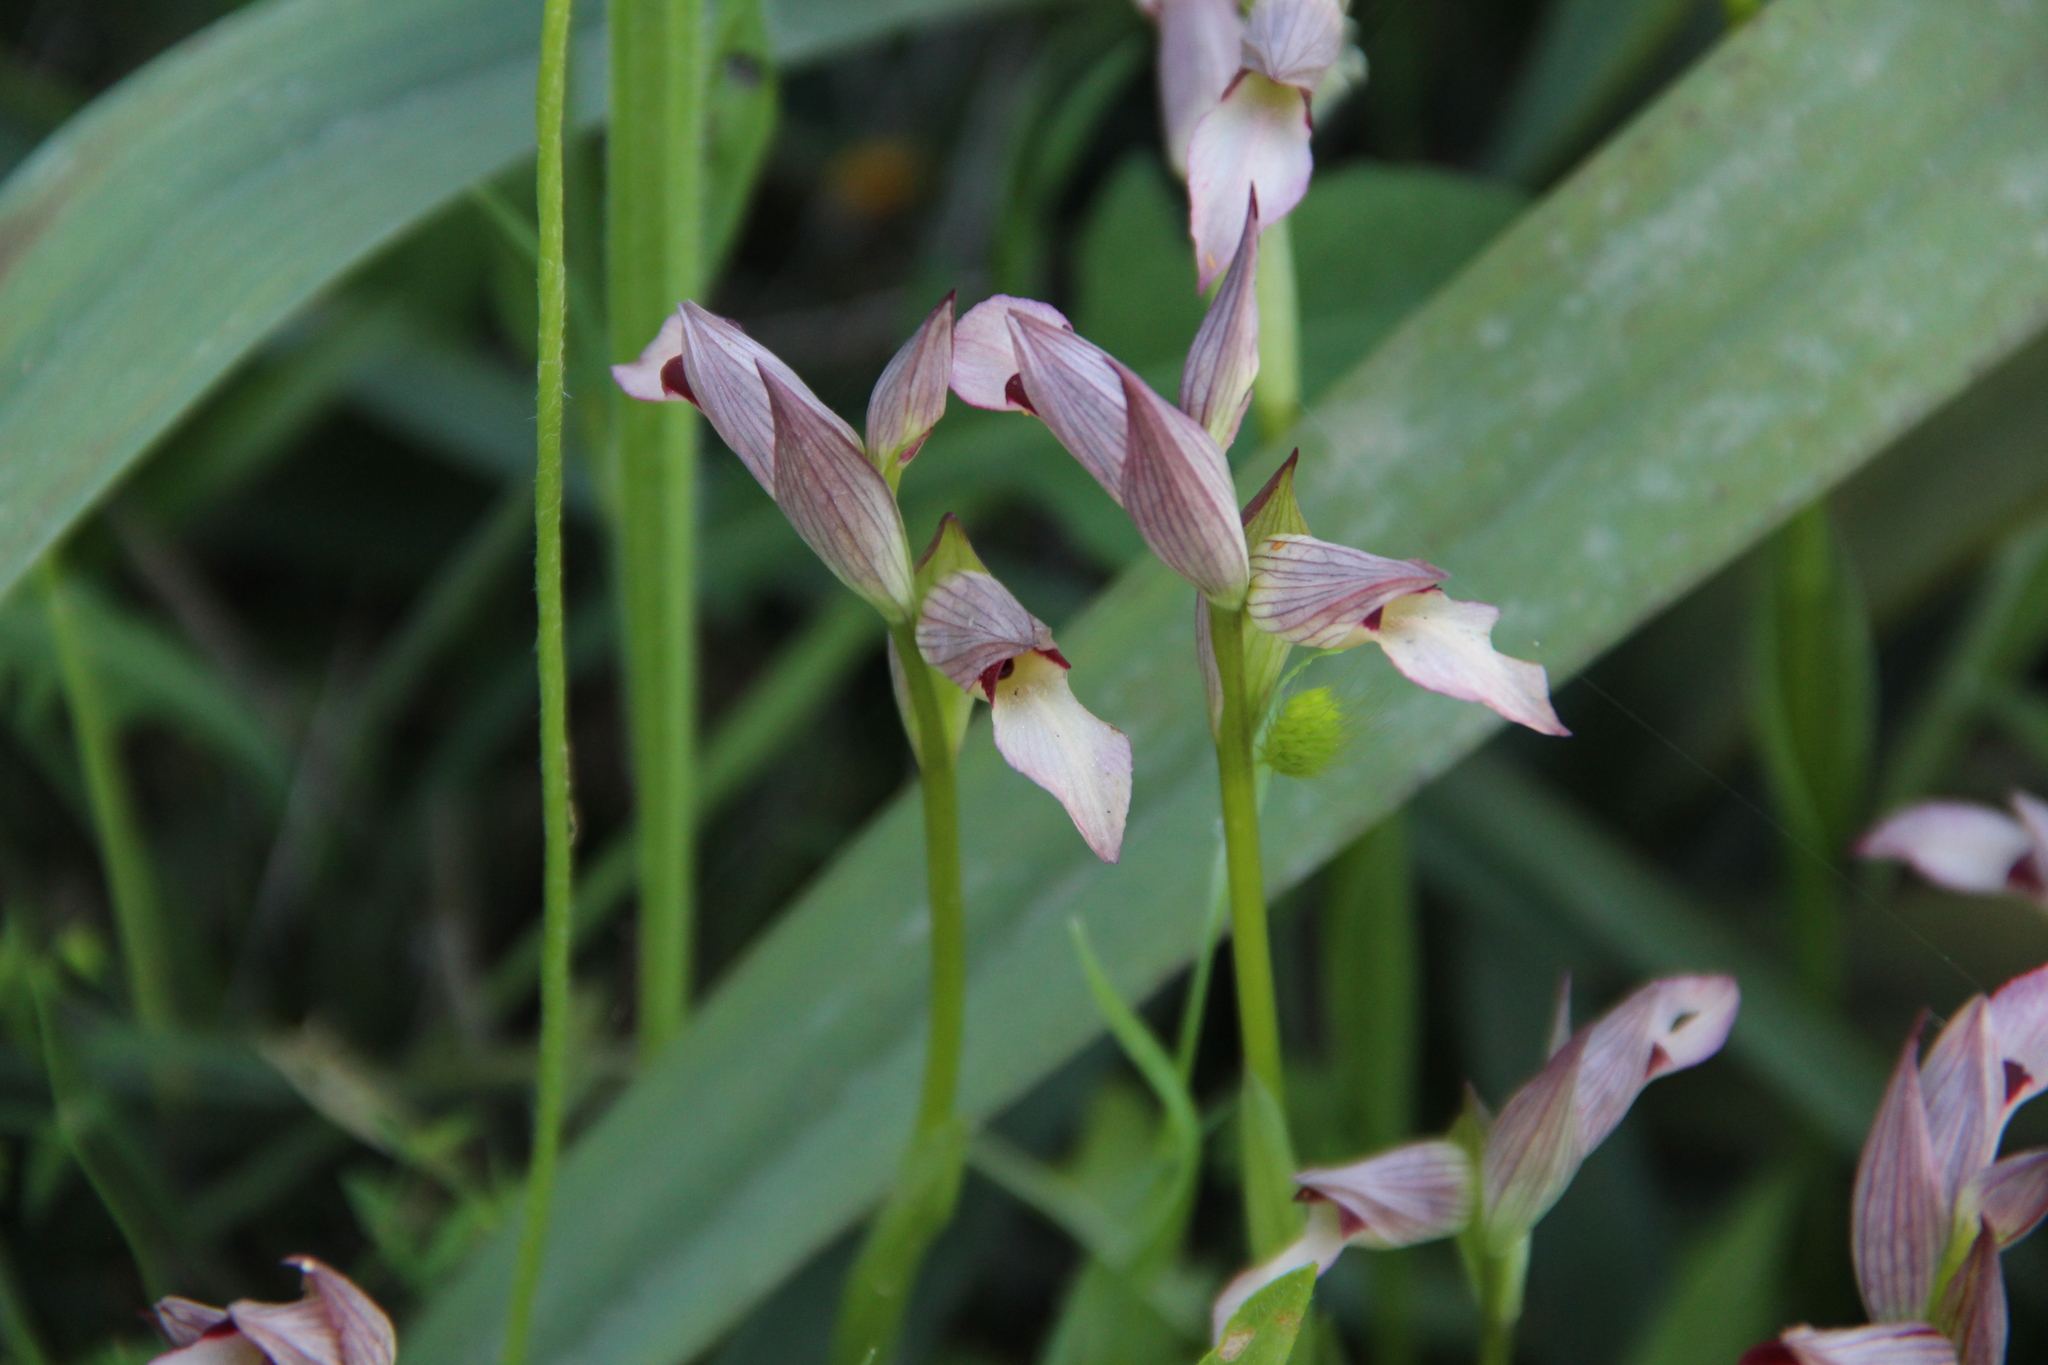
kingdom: Plantae
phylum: Tracheophyta
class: Liliopsida
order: Asparagales
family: Orchidaceae
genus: Serapias
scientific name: Serapias lingua
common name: Tongue-orchid
